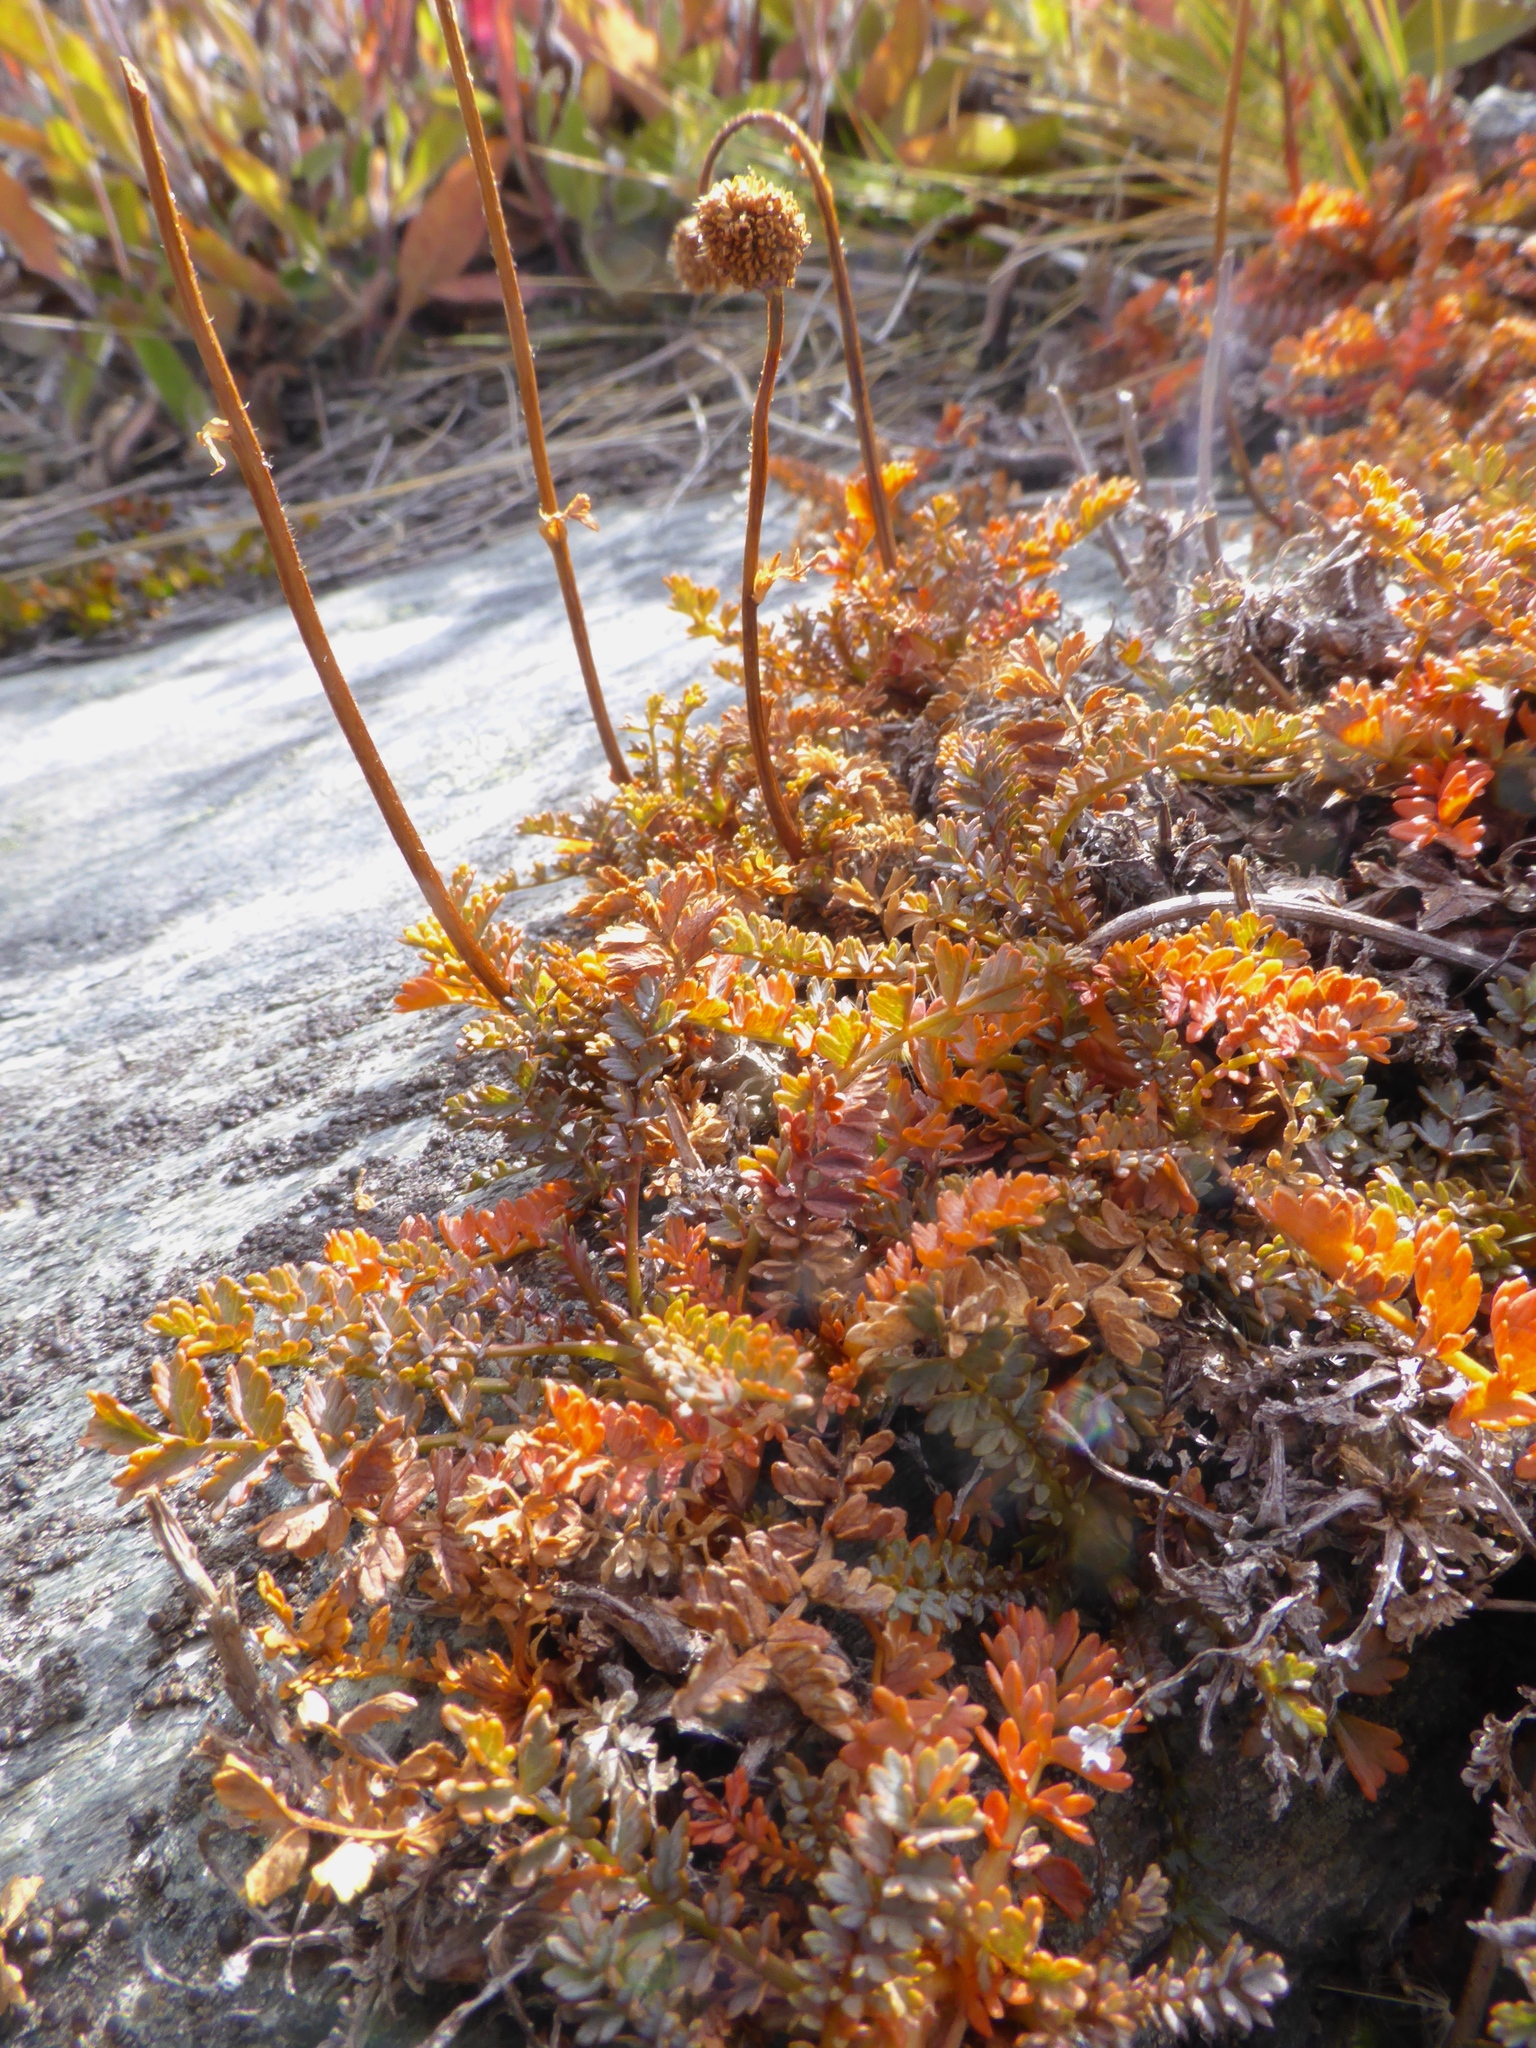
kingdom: Plantae
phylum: Tracheophyta
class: Magnoliopsida
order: Rosales
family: Rosaceae
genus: Acaena
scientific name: Acaena profundeincisa
